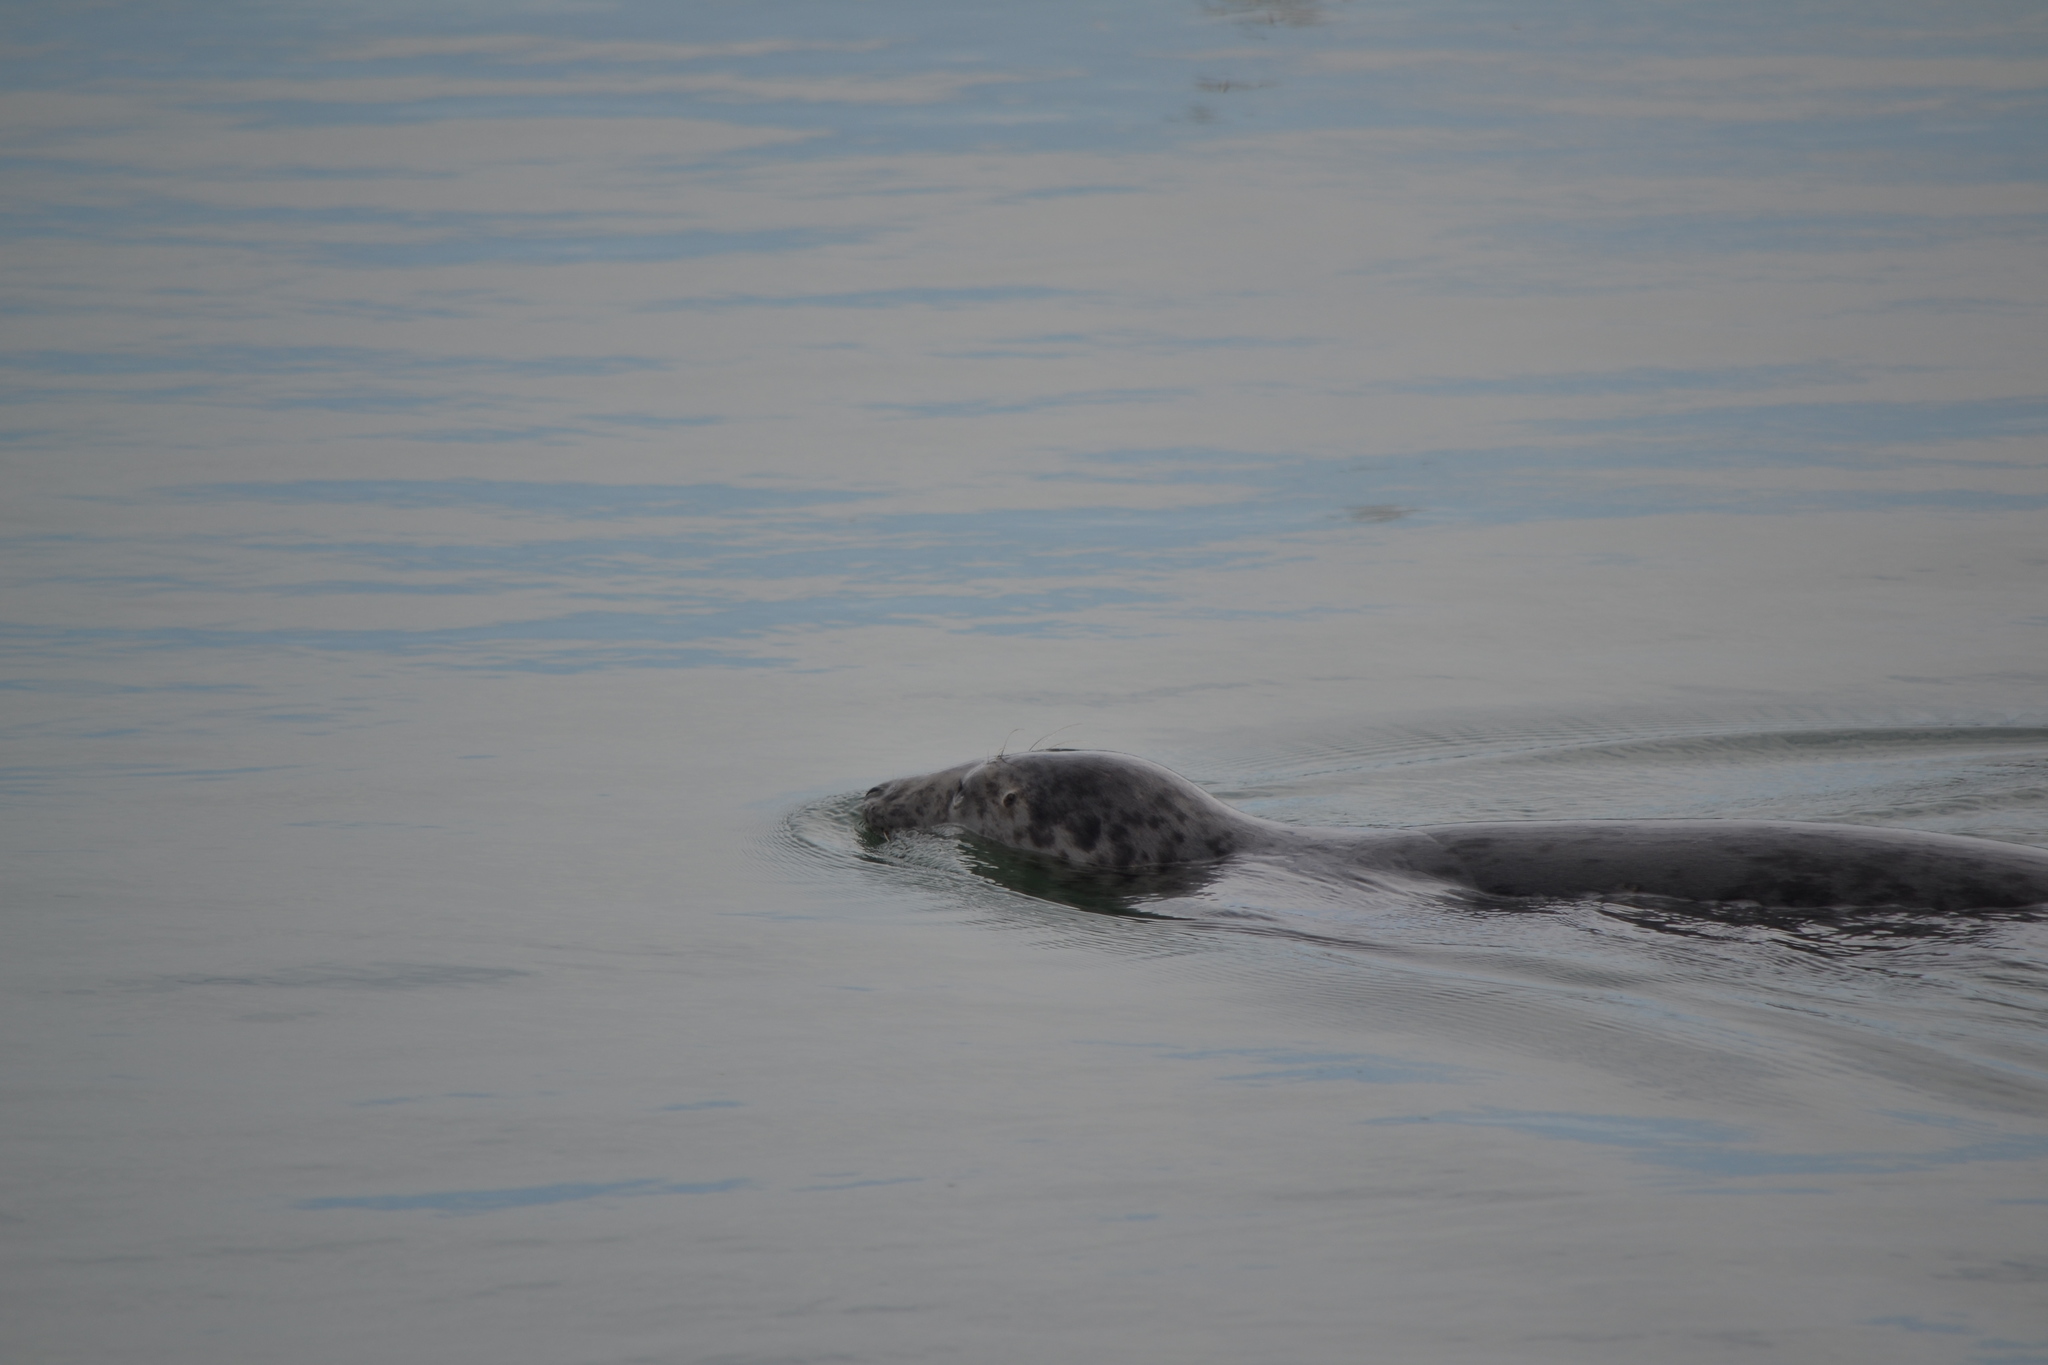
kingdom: Animalia
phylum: Chordata
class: Mammalia
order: Carnivora
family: Phocidae
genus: Halichoerus
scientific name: Halichoerus grypus
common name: Grey seal
